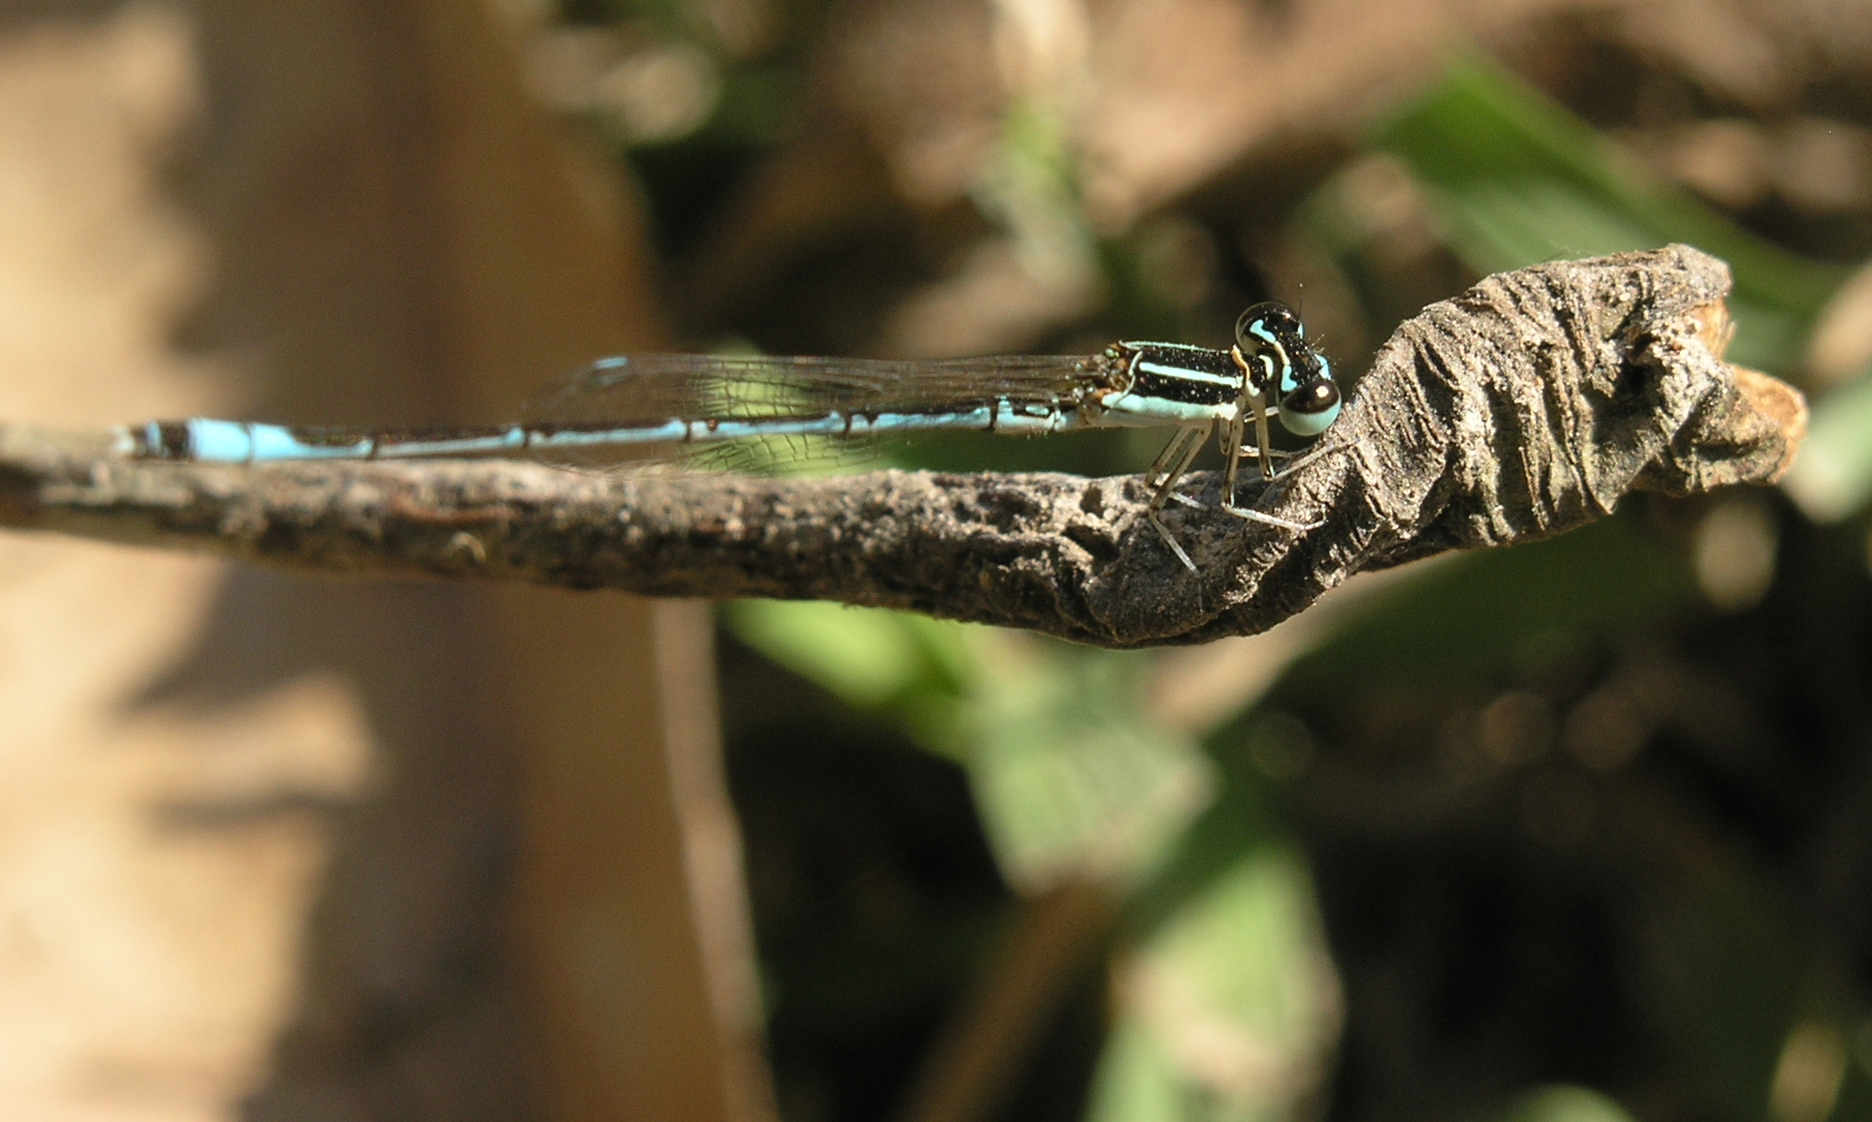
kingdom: Animalia
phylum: Arthropoda
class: Insecta
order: Odonata
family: Coenagrionidae
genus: Agriocnemis
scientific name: Agriocnemis nana
